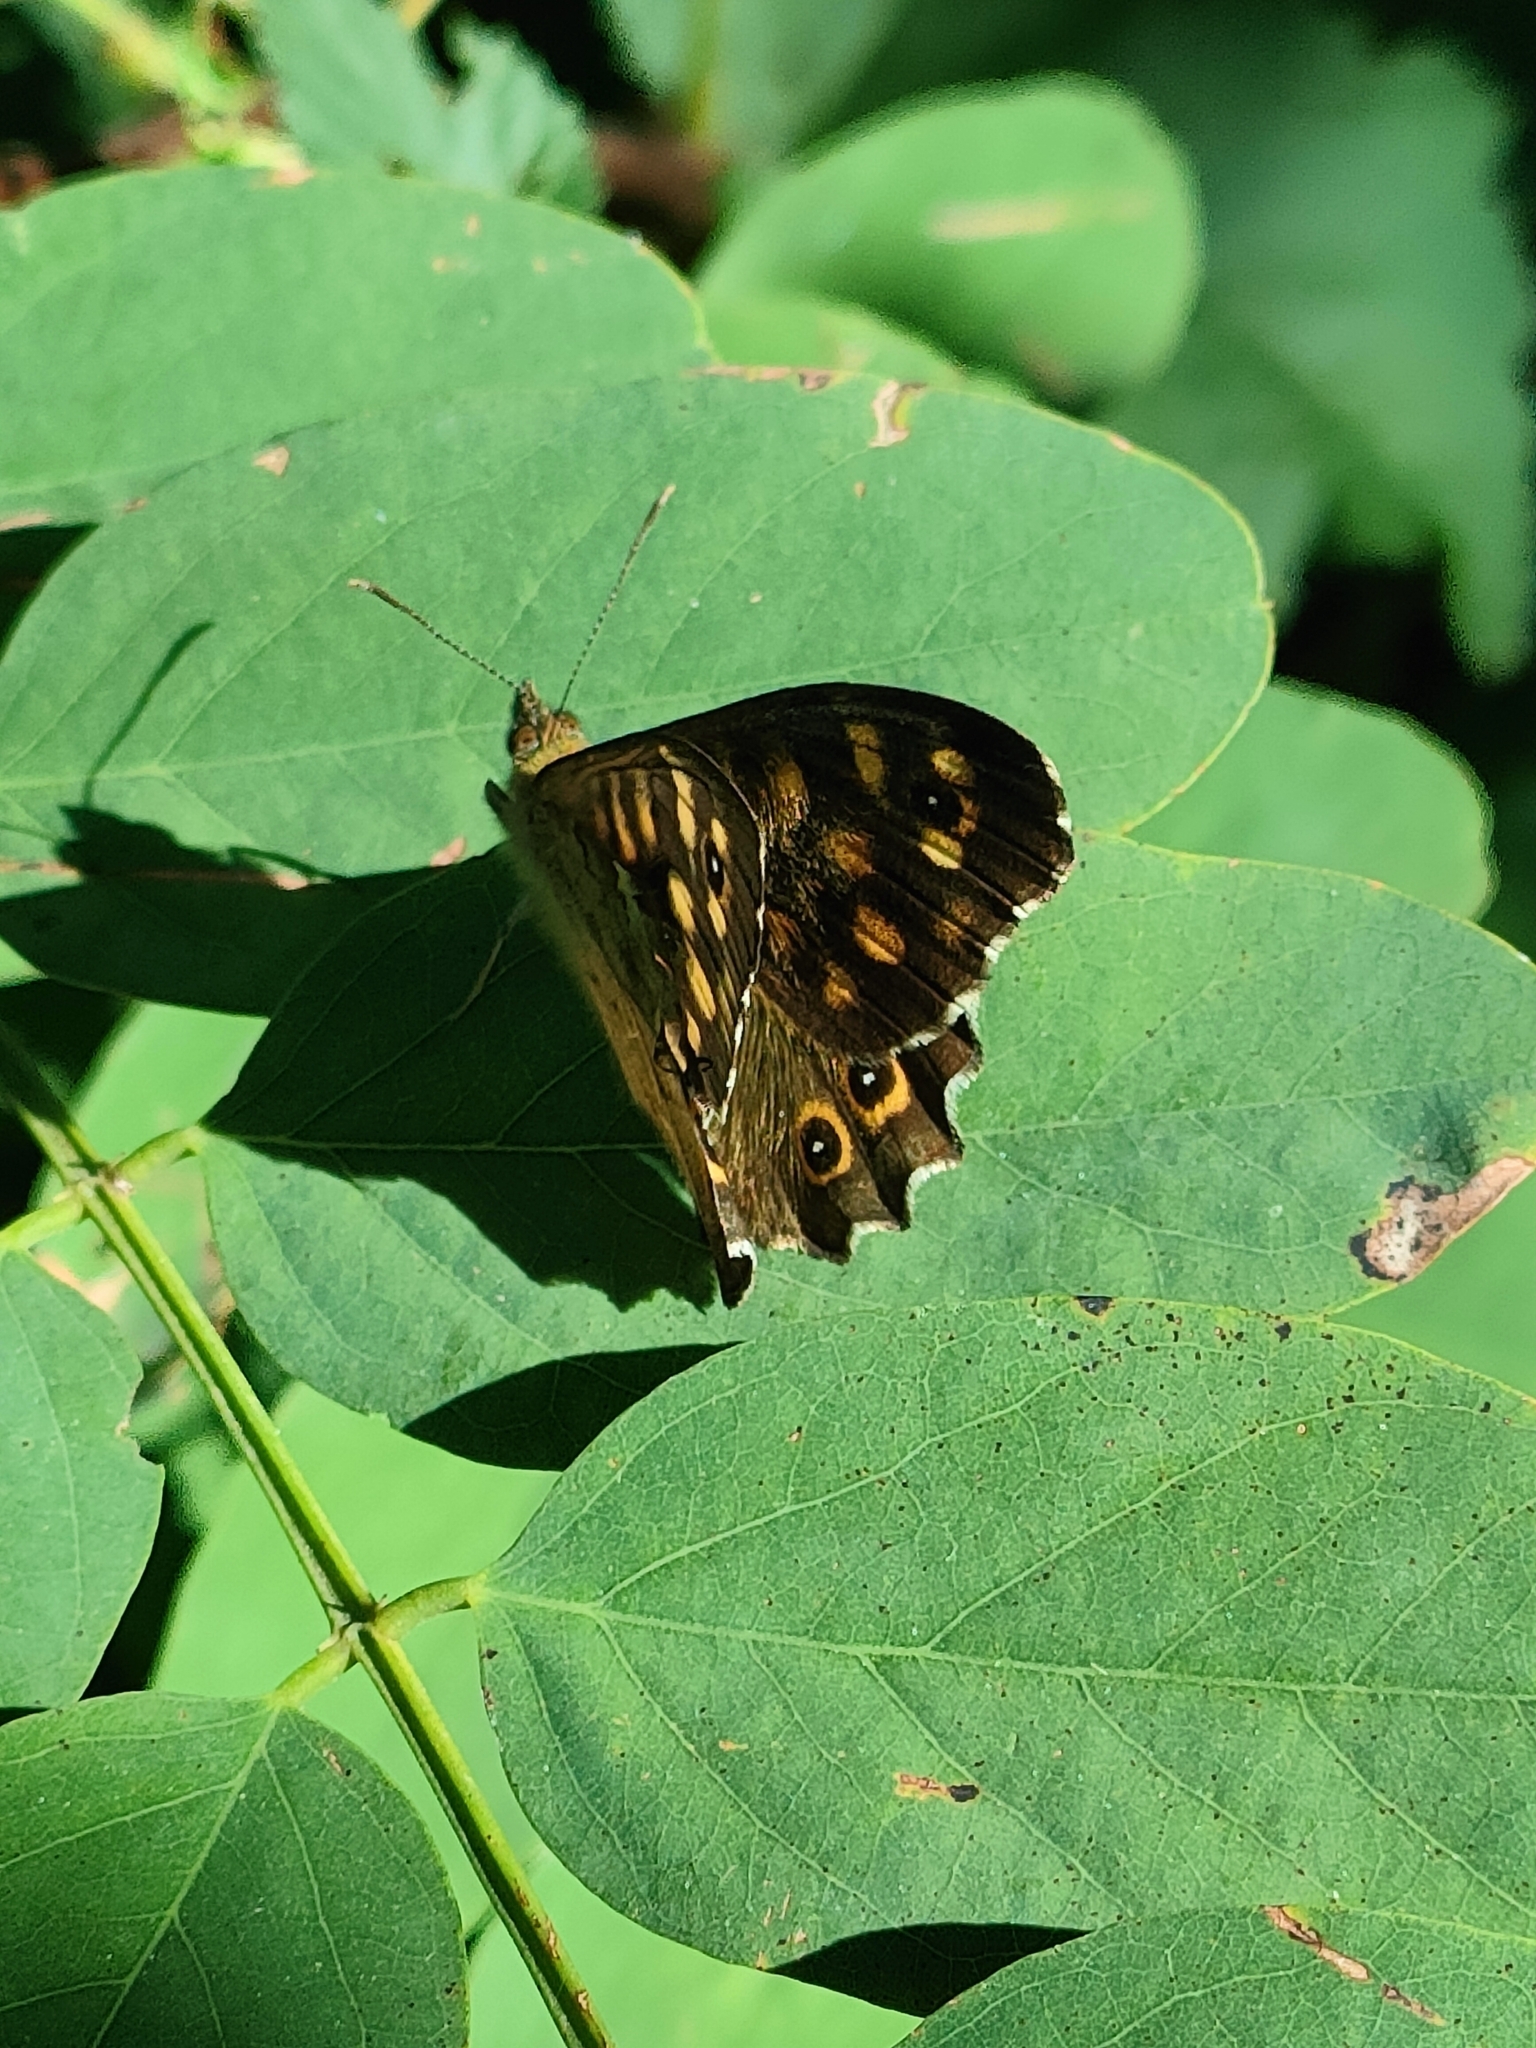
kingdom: Animalia
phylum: Arthropoda
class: Insecta
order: Lepidoptera
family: Nymphalidae
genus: Pararge
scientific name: Pararge aegeria
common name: Speckled wood
